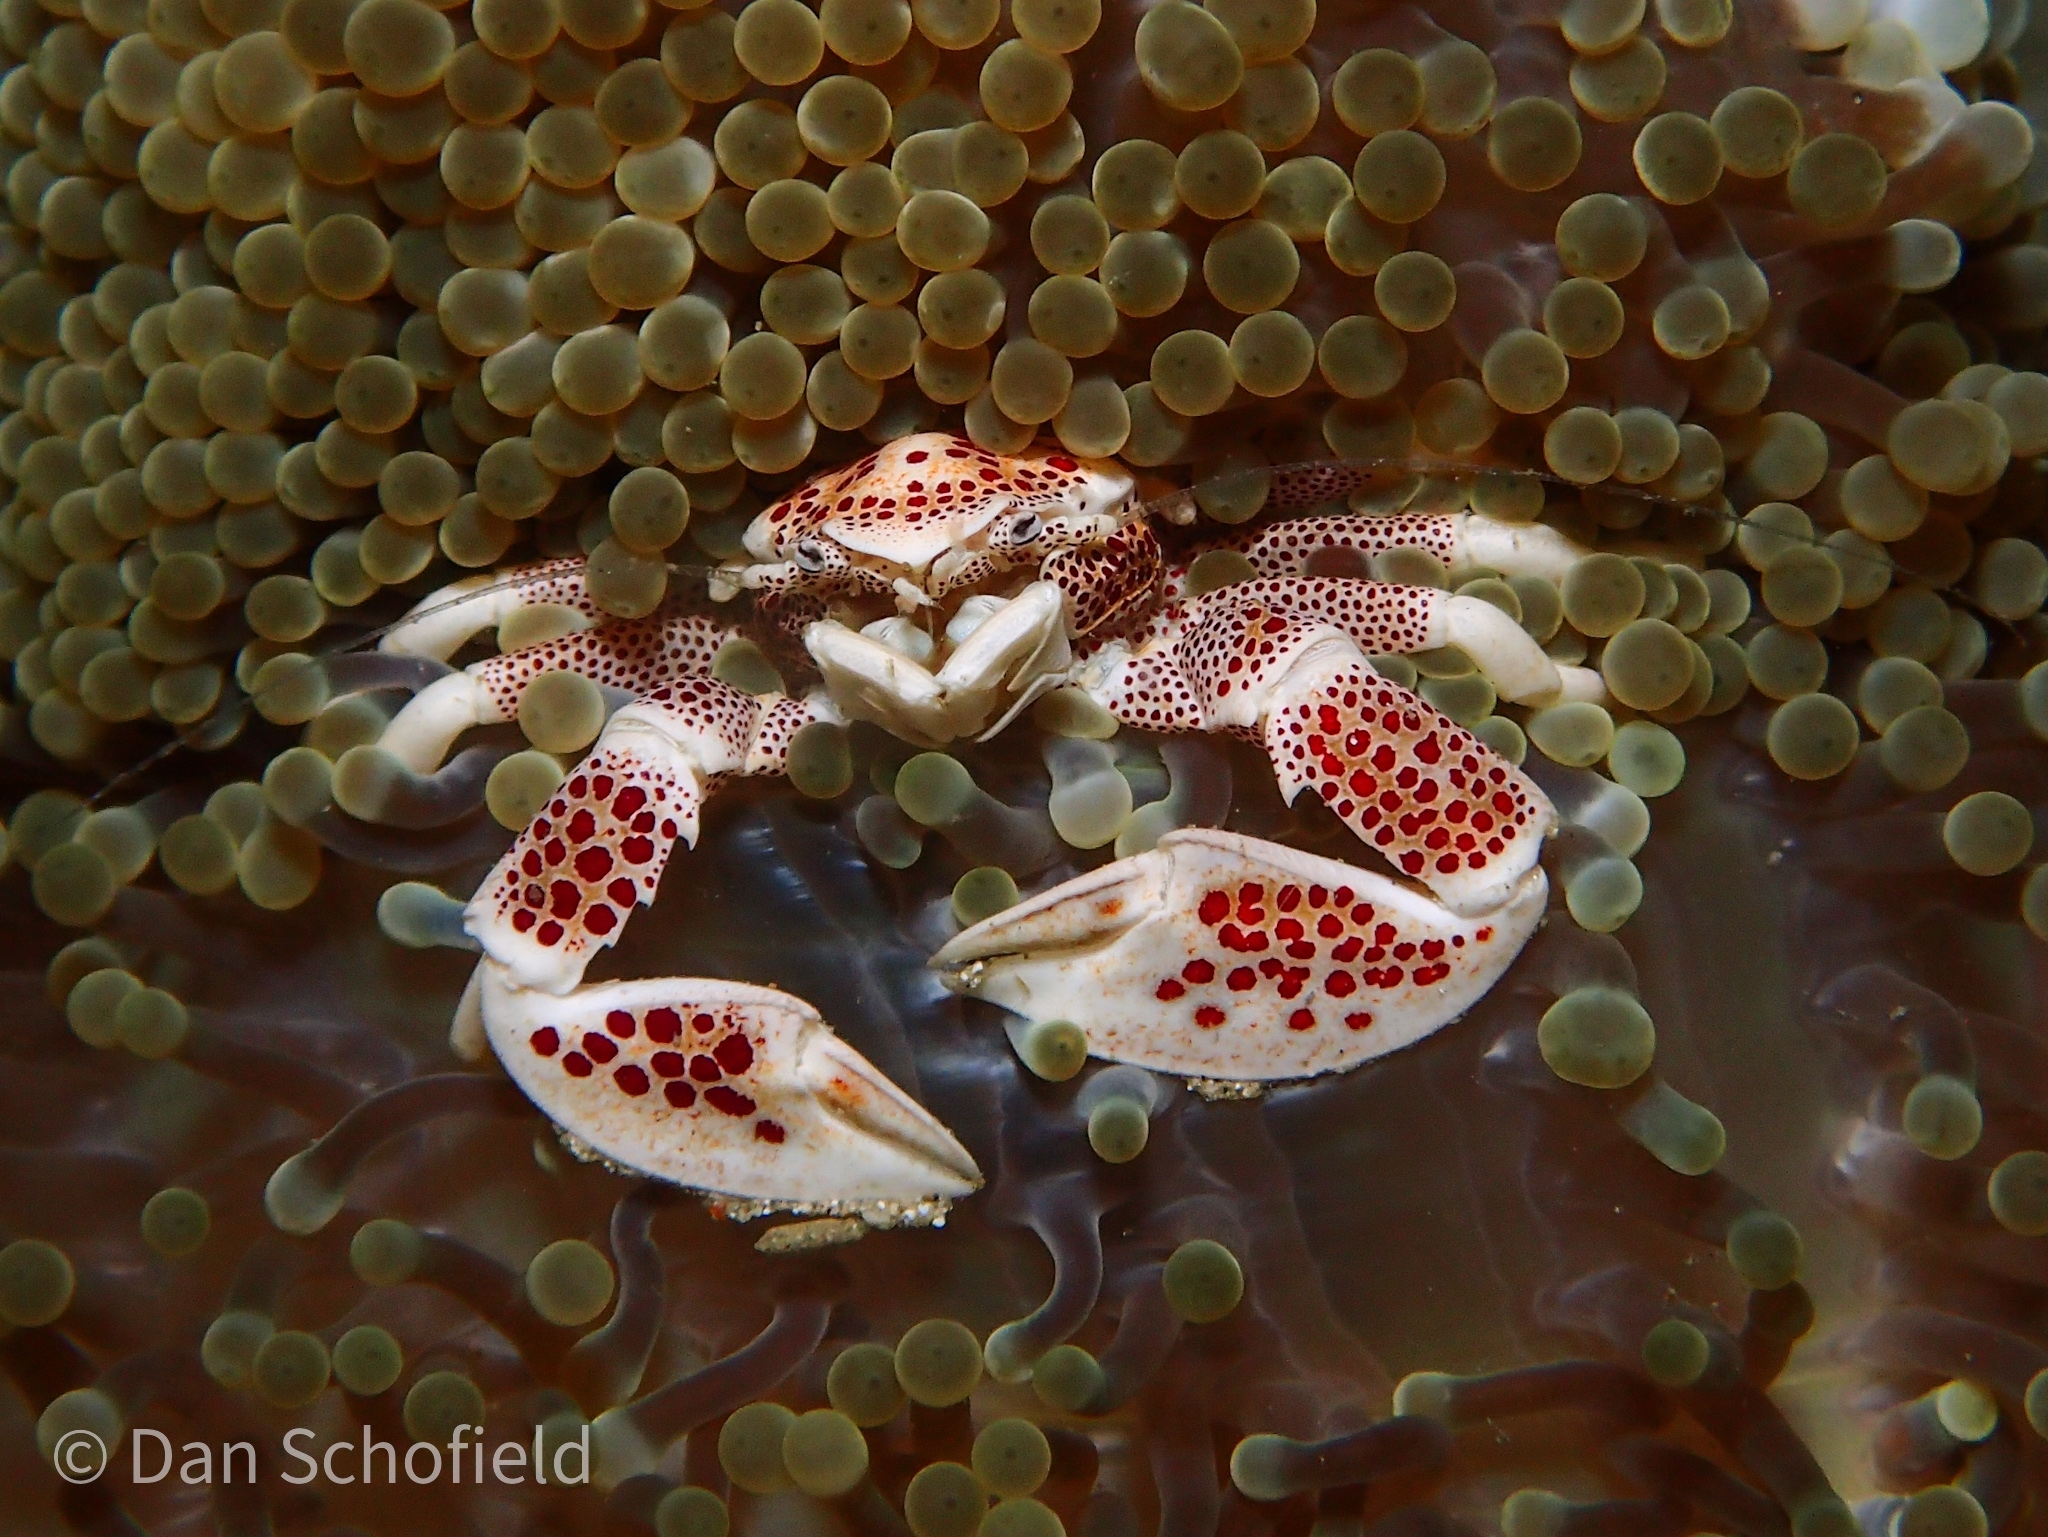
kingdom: Animalia
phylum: Arthropoda
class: Malacostraca
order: Decapoda
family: Porcellanidae
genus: Neopetrolisthes
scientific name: Neopetrolisthes maculatus
